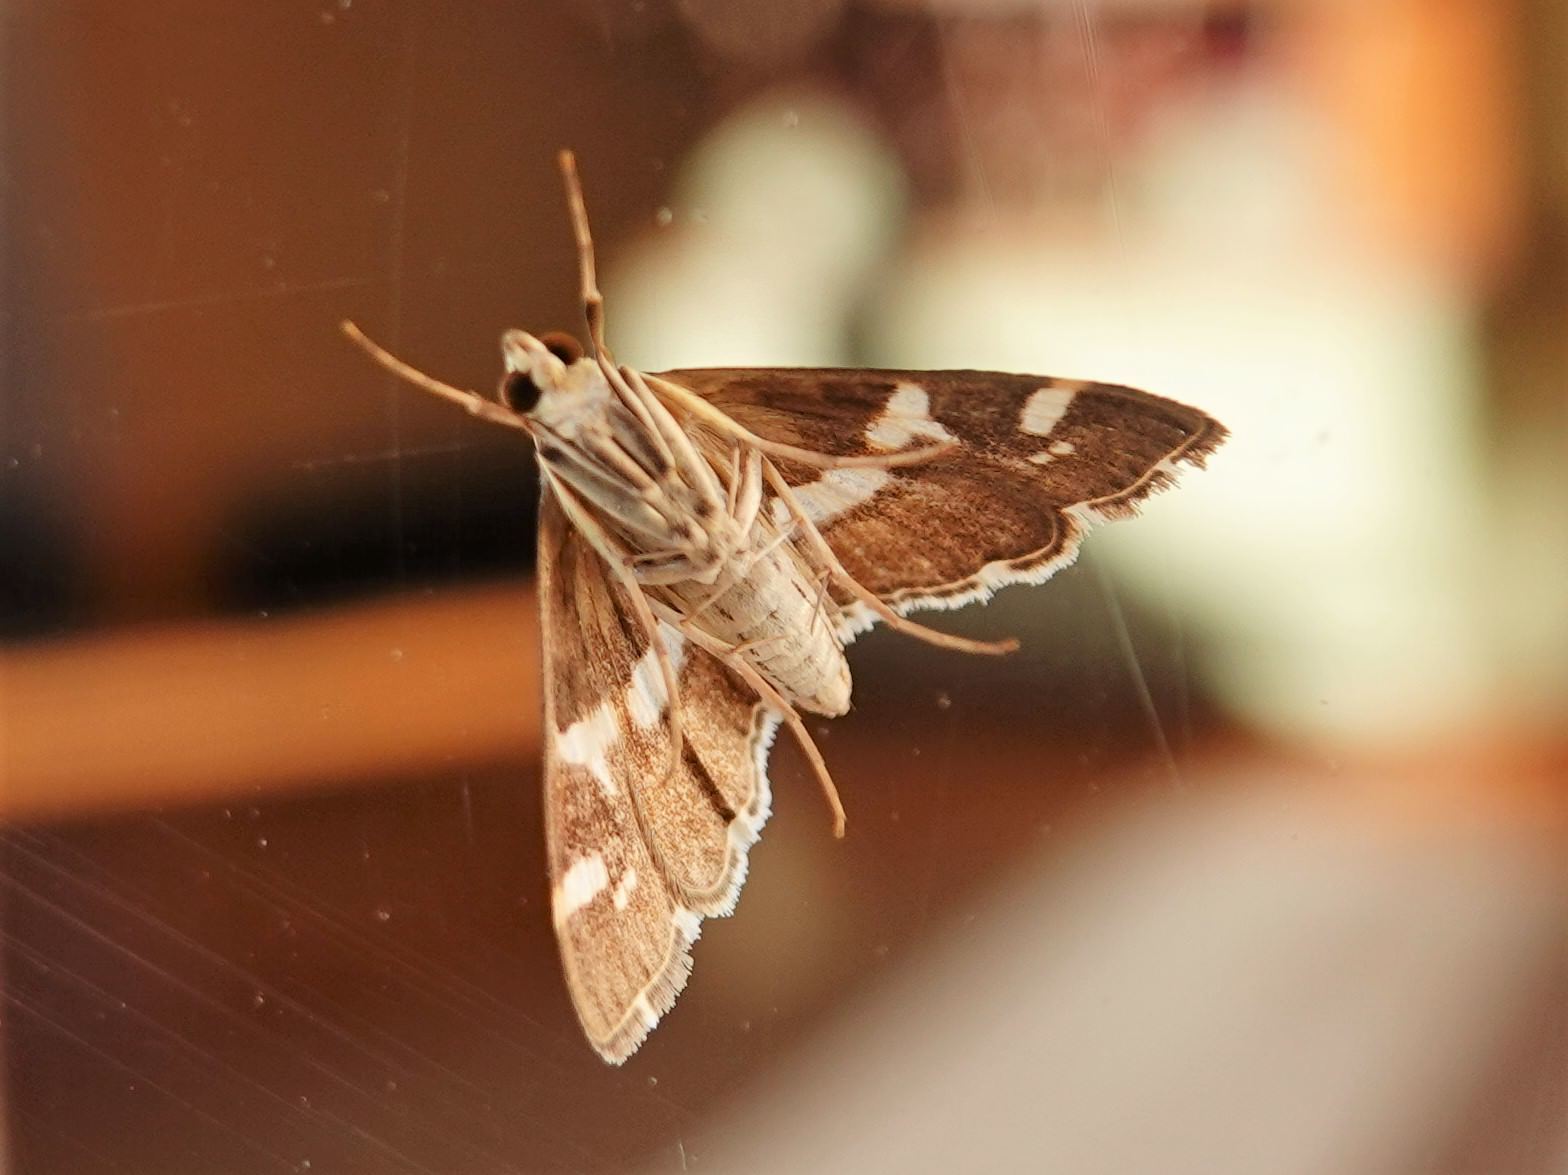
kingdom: Animalia
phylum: Arthropoda
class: Insecta
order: Lepidoptera
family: Crambidae
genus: Spoladea
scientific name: Spoladea recurvalis
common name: Beet webworm moth
